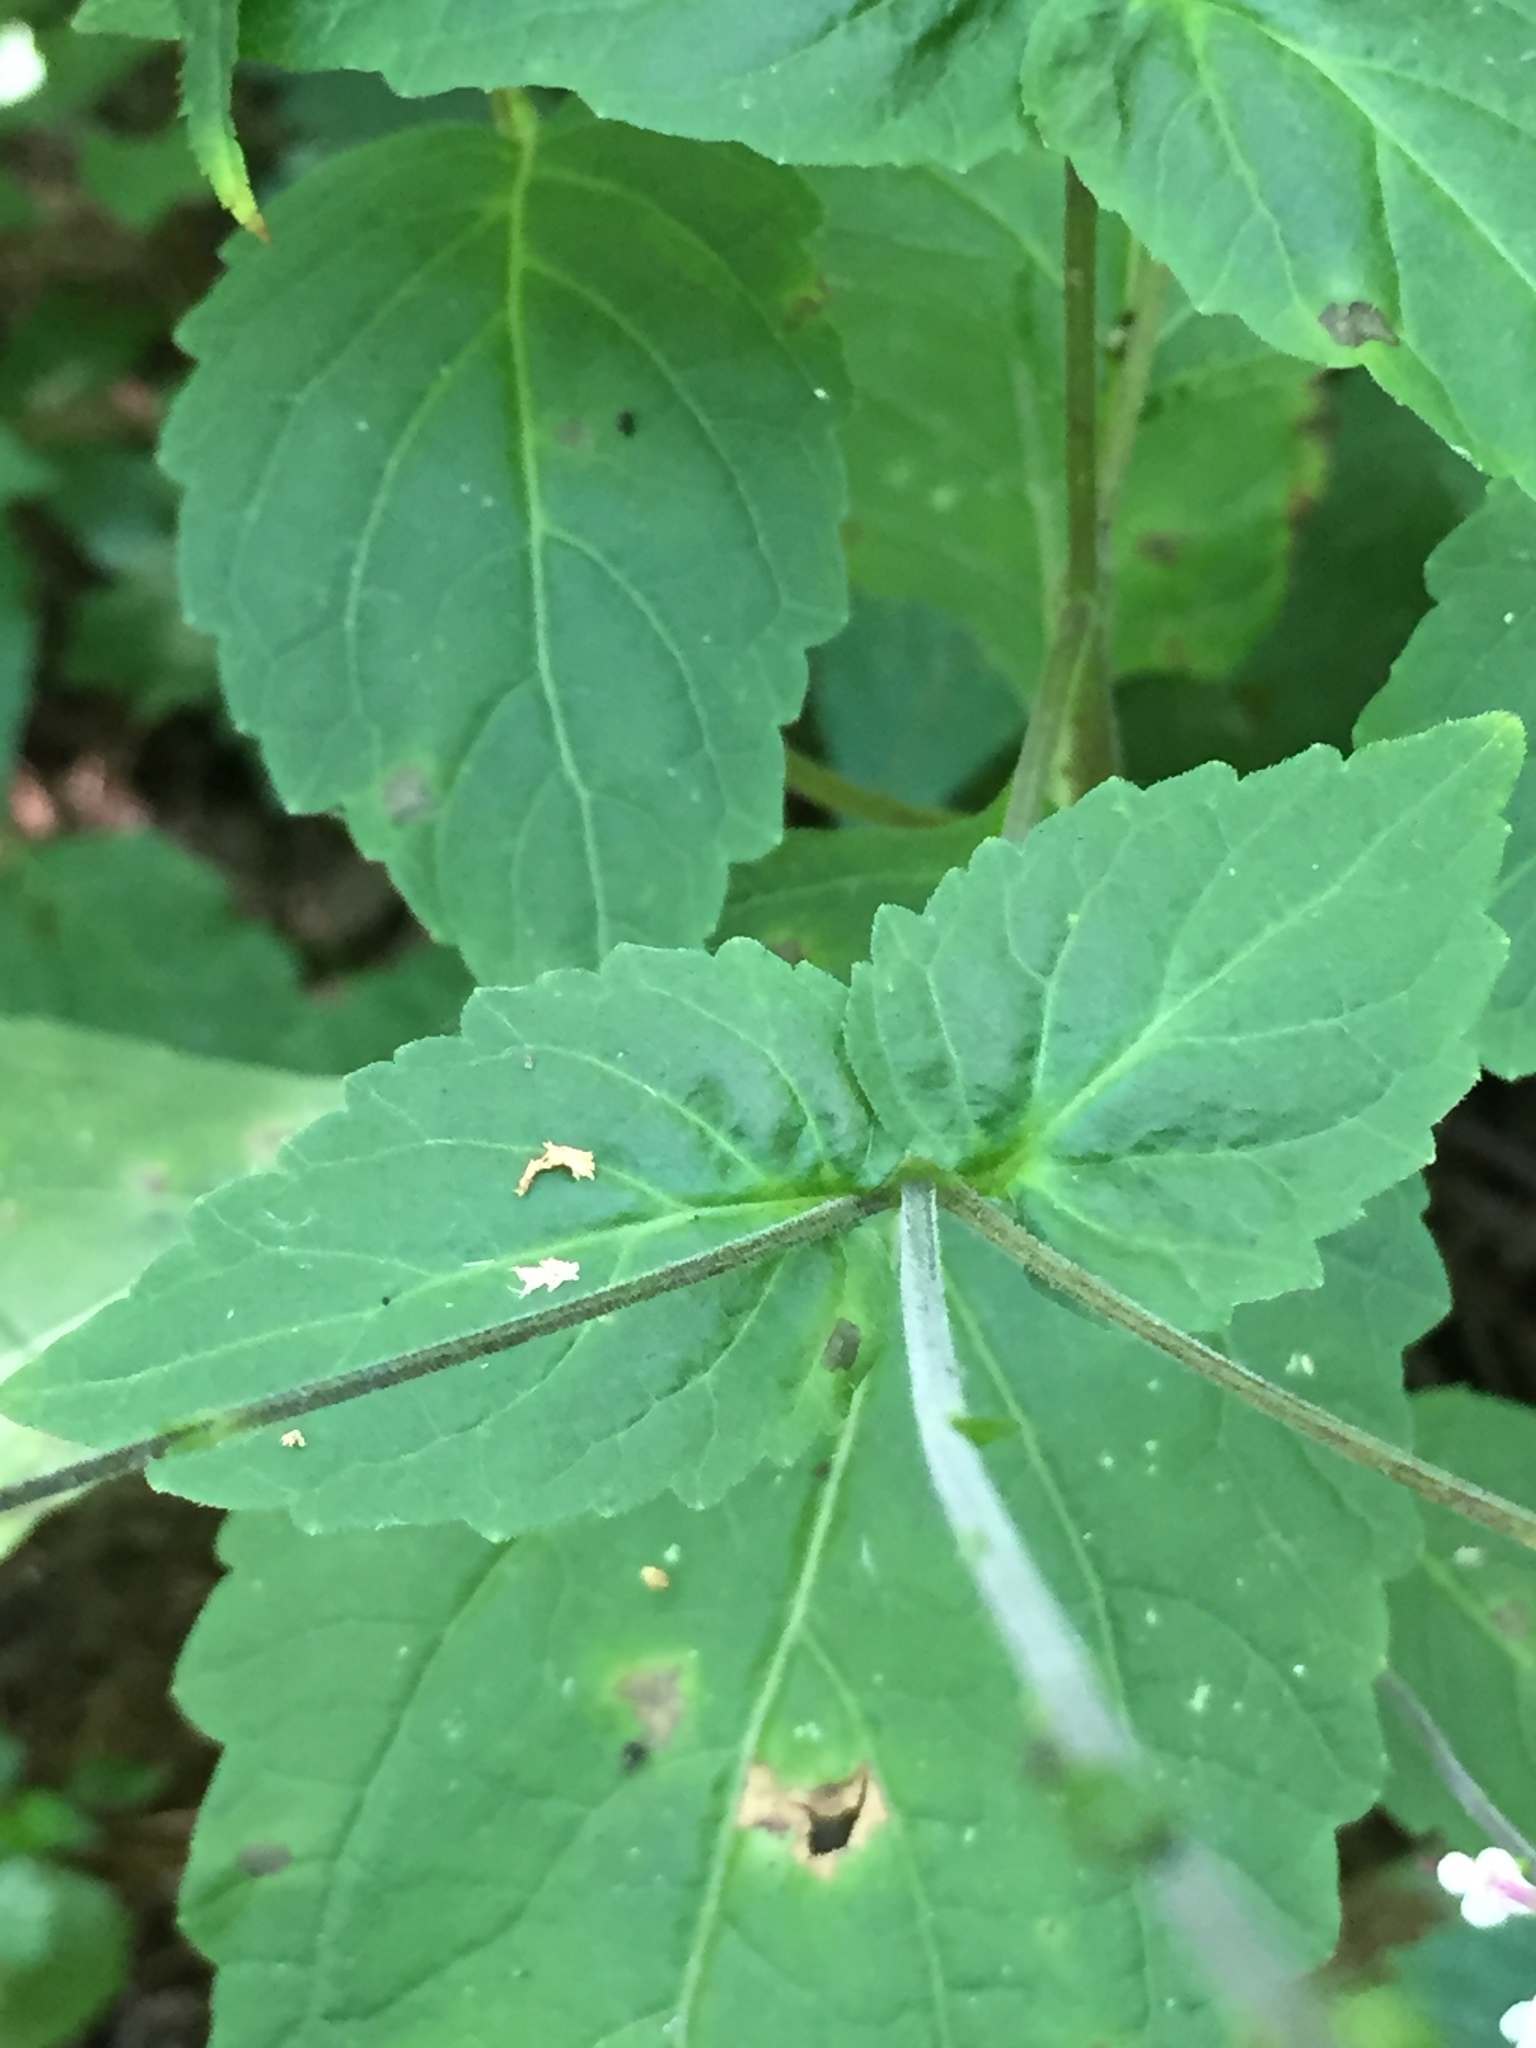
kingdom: Plantae
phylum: Tracheophyta
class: Magnoliopsida
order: Lamiales
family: Phrymaceae
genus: Phryma
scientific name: Phryma leptostachya
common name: American lopseed
